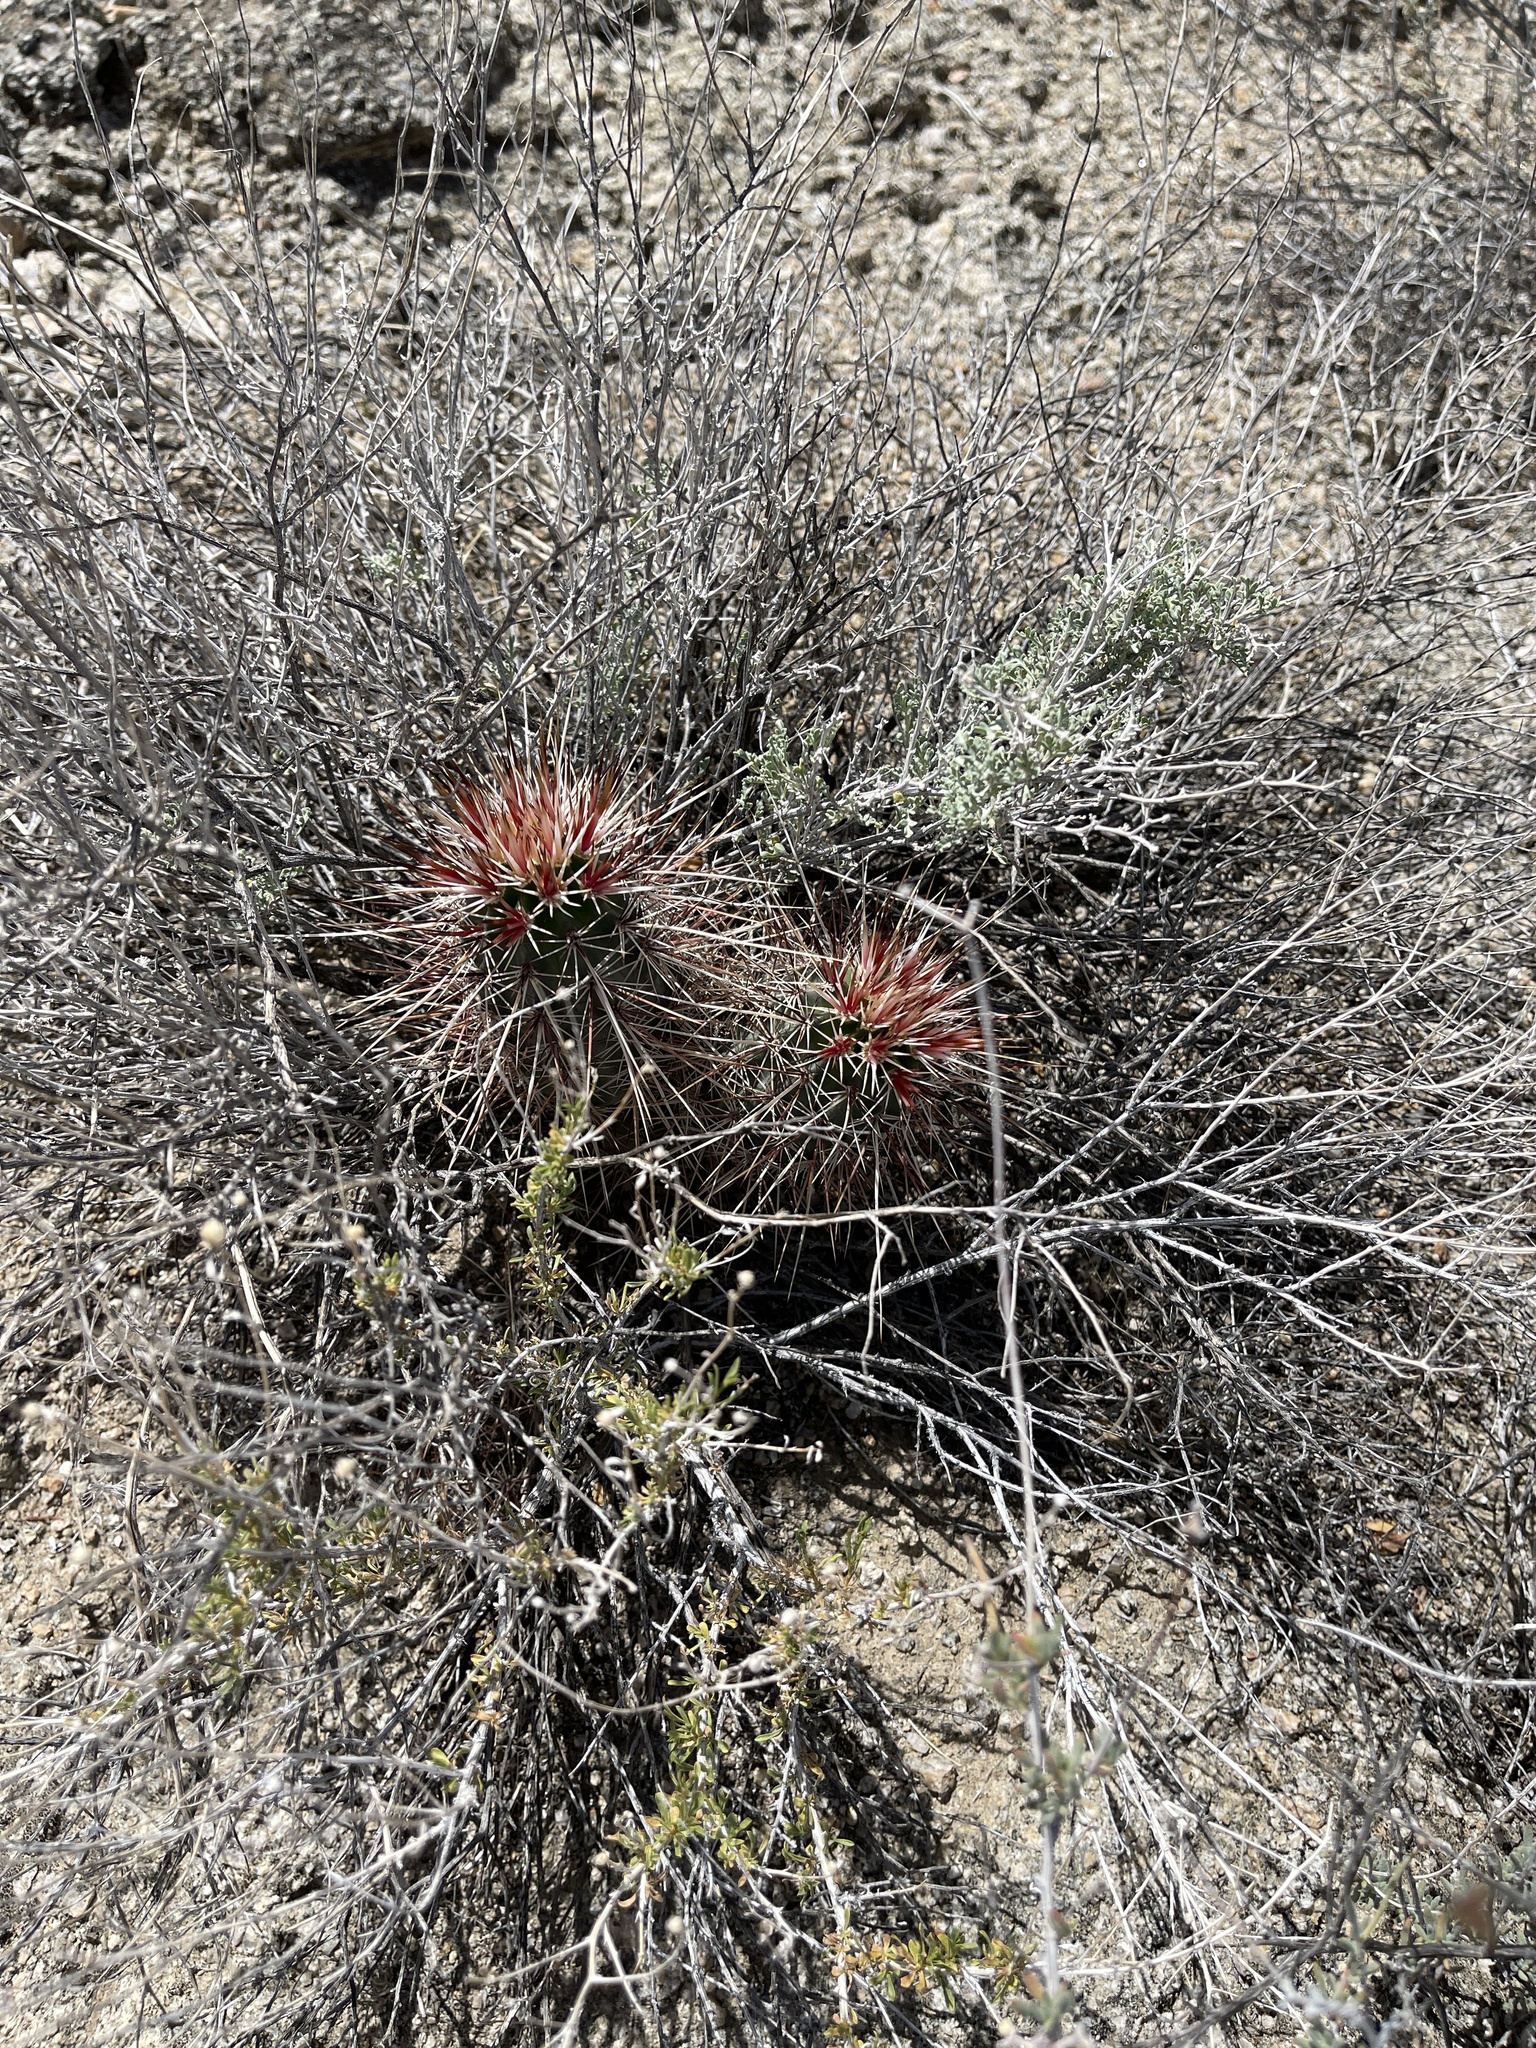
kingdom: Plantae
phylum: Tracheophyta
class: Magnoliopsida
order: Caryophyllales
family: Cactaceae
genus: Echinocereus
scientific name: Echinocereus engelmannii
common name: Engelmann's hedgehog cactus
